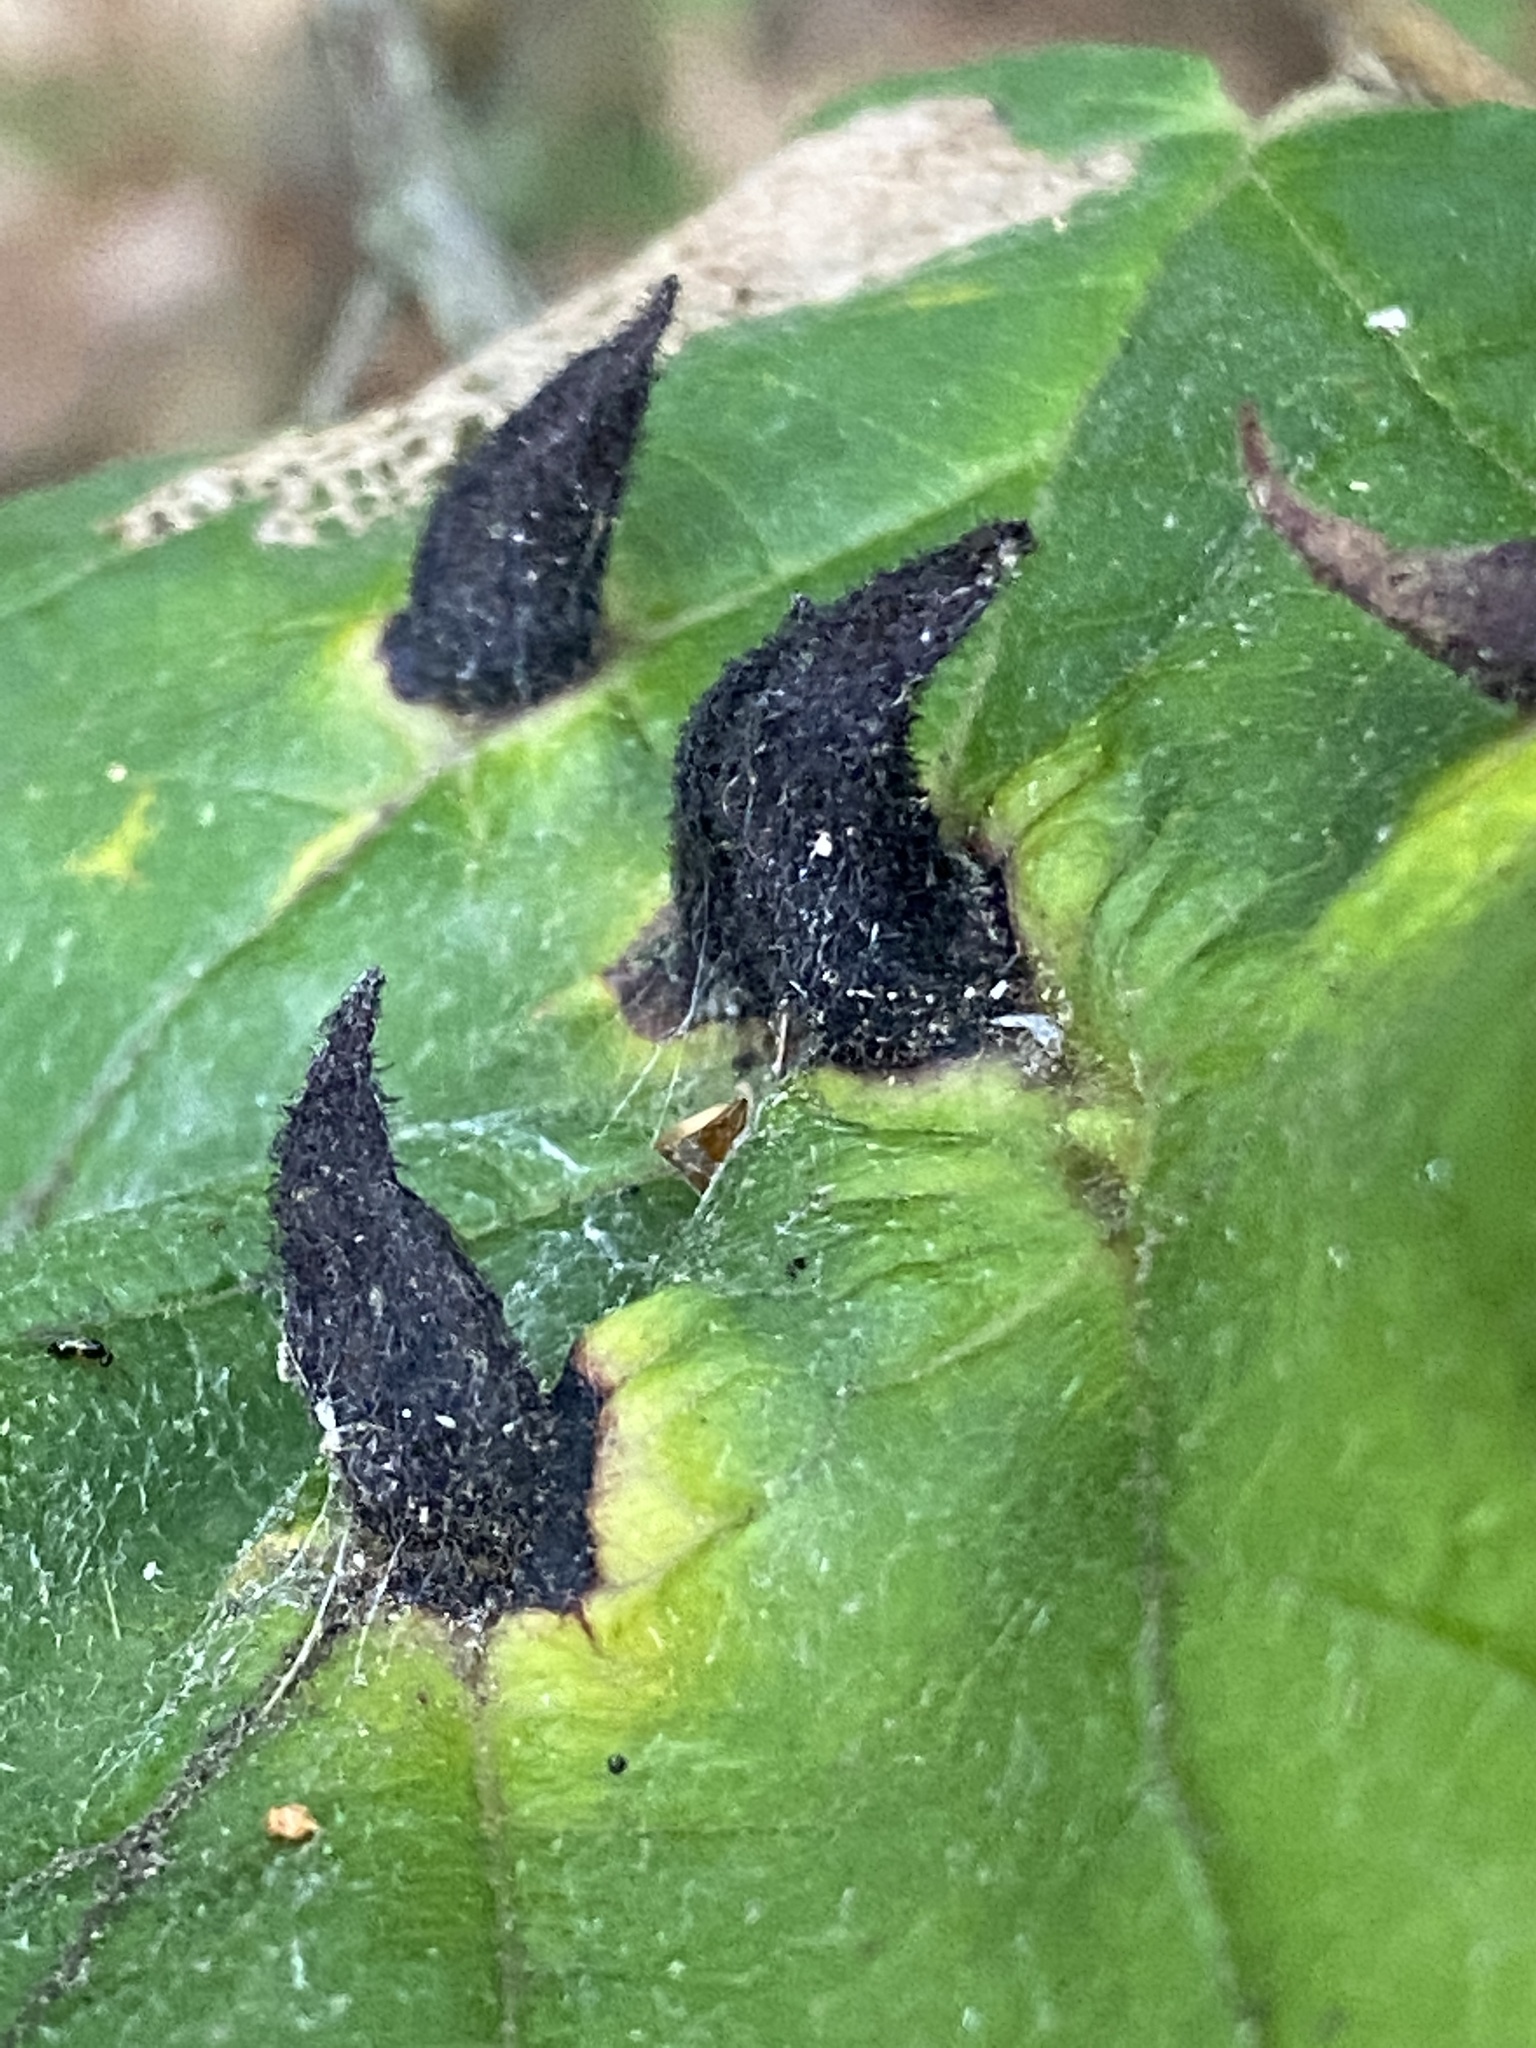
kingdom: Animalia
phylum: Arthropoda
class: Insecta
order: Hemiptera
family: Aphididae
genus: Hormaphis
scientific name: Hormaphis hamamelidis
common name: Witch-hazel cone gall aphid
